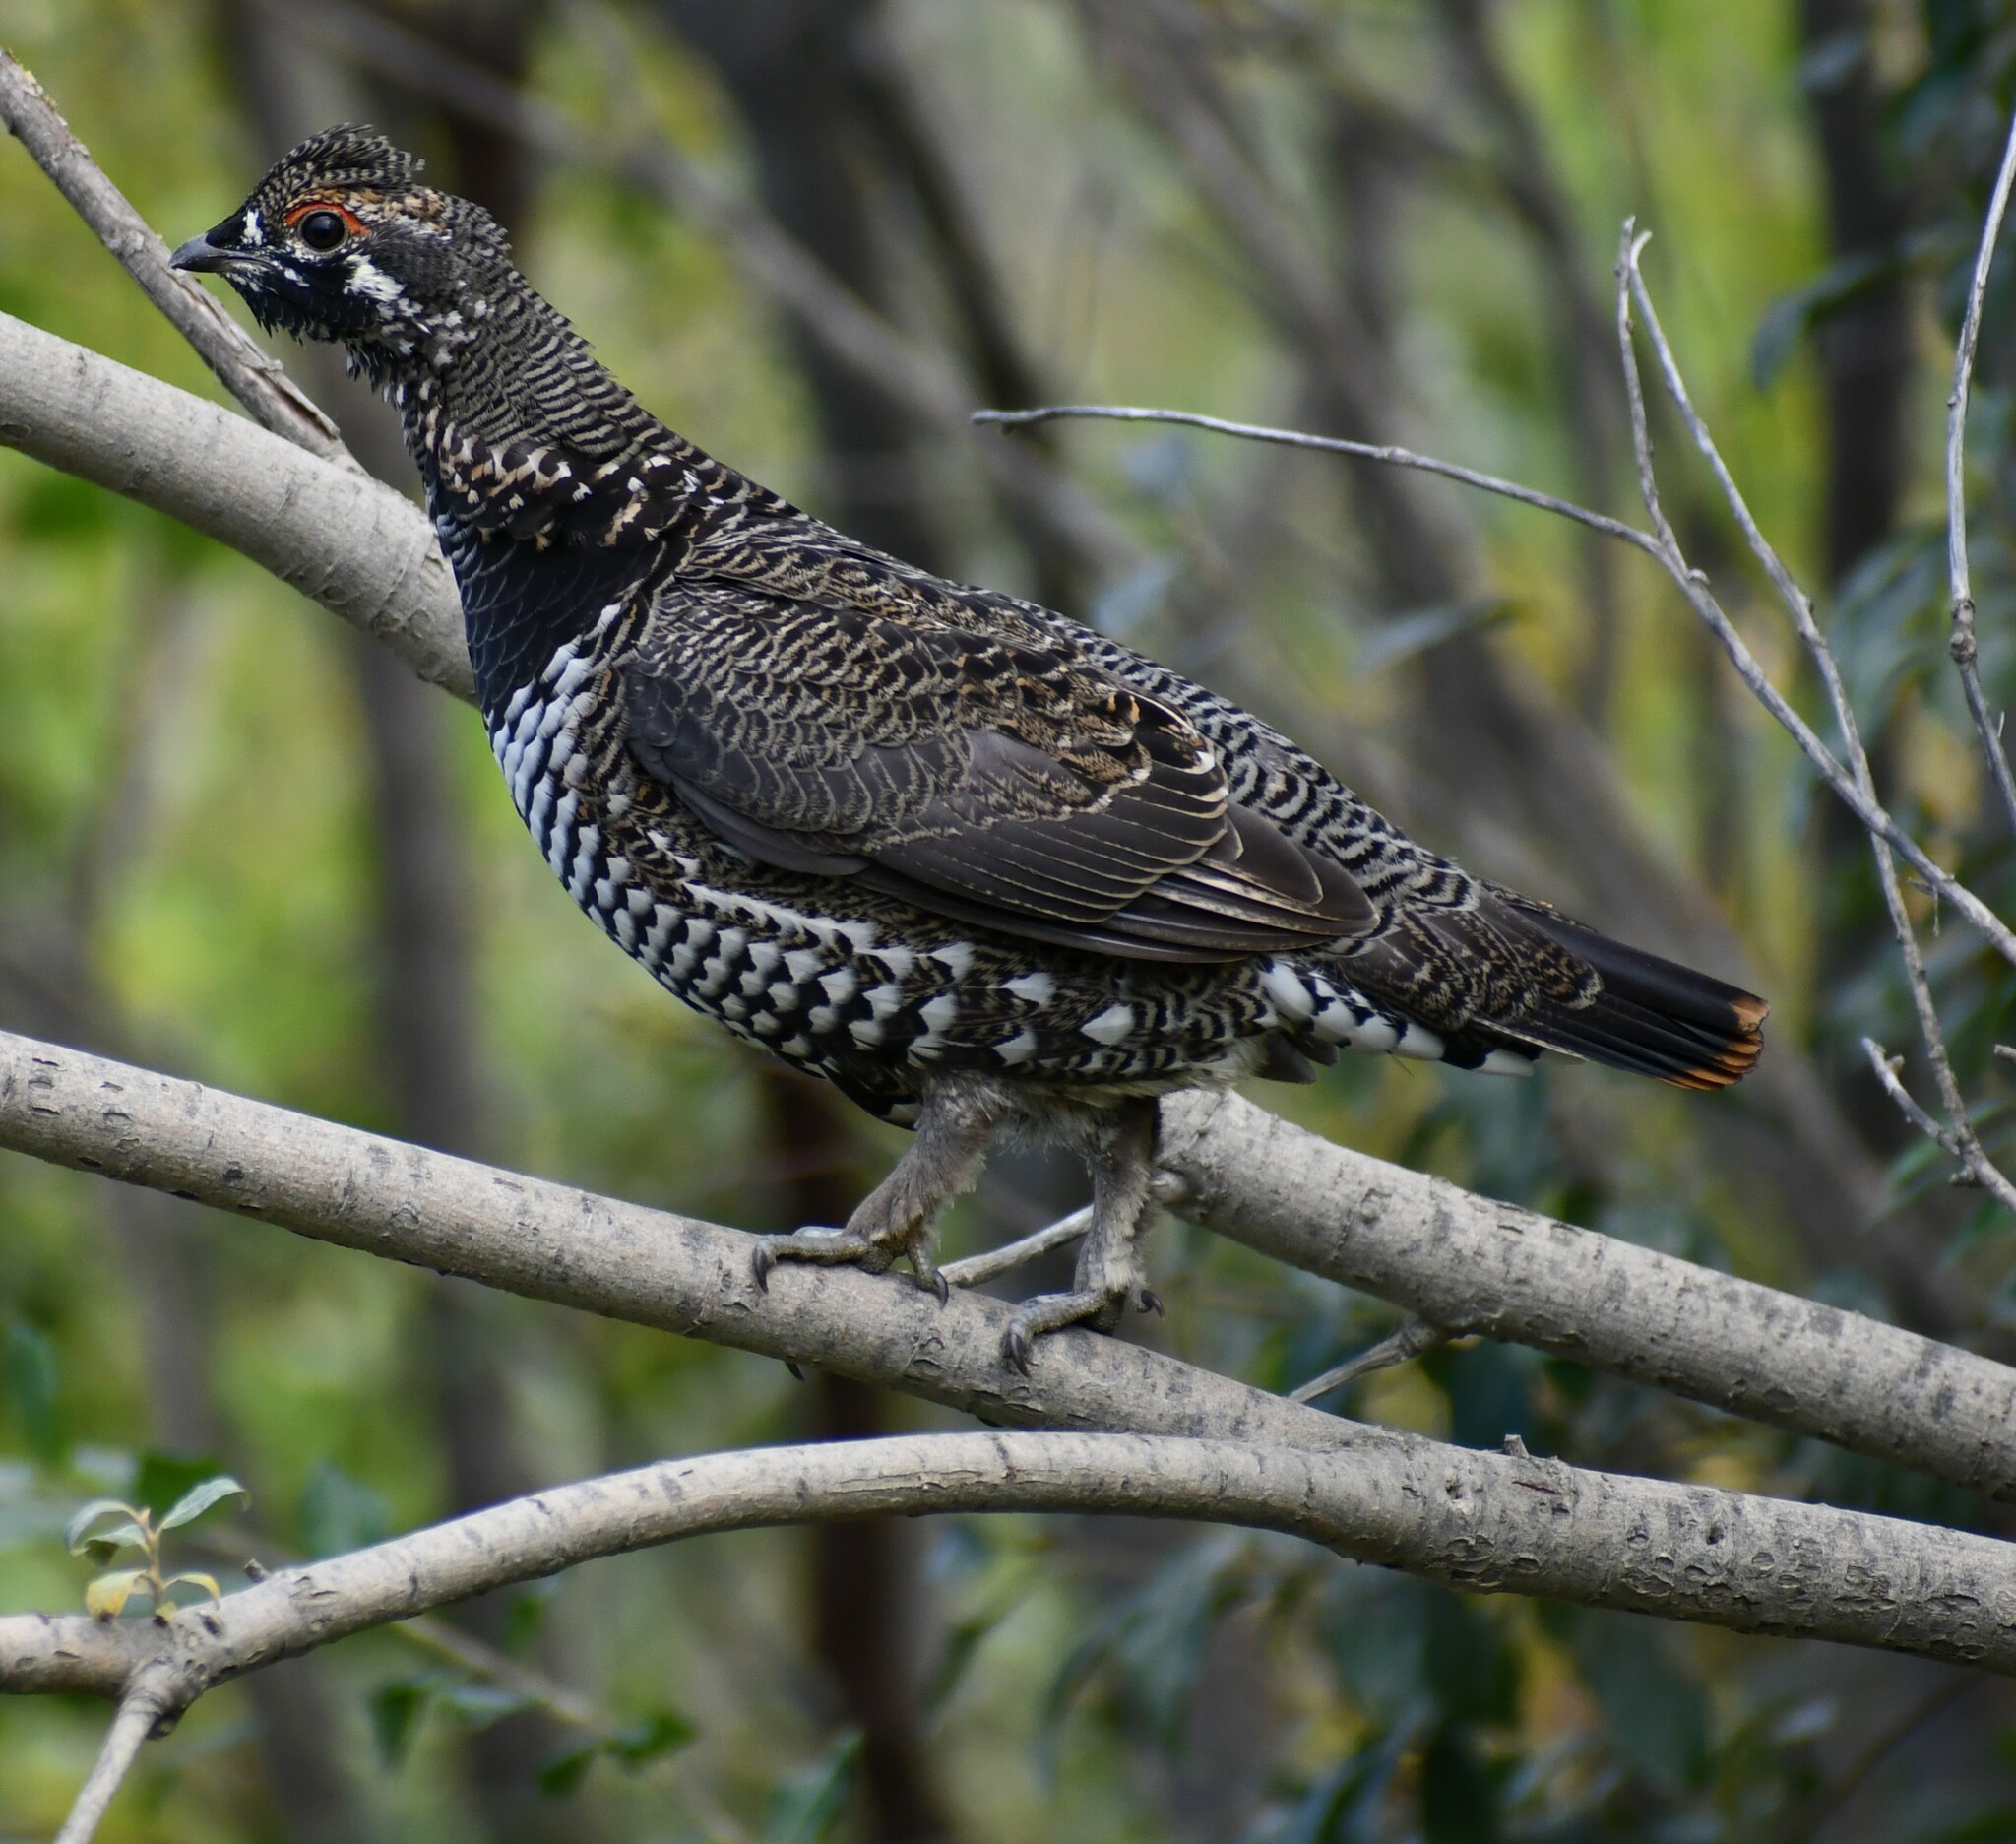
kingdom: Animalia
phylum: Chordata
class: Aves
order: Galliformes
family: Phasianidae
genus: Canachites
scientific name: Canachites canadensis
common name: Spruce grouse
